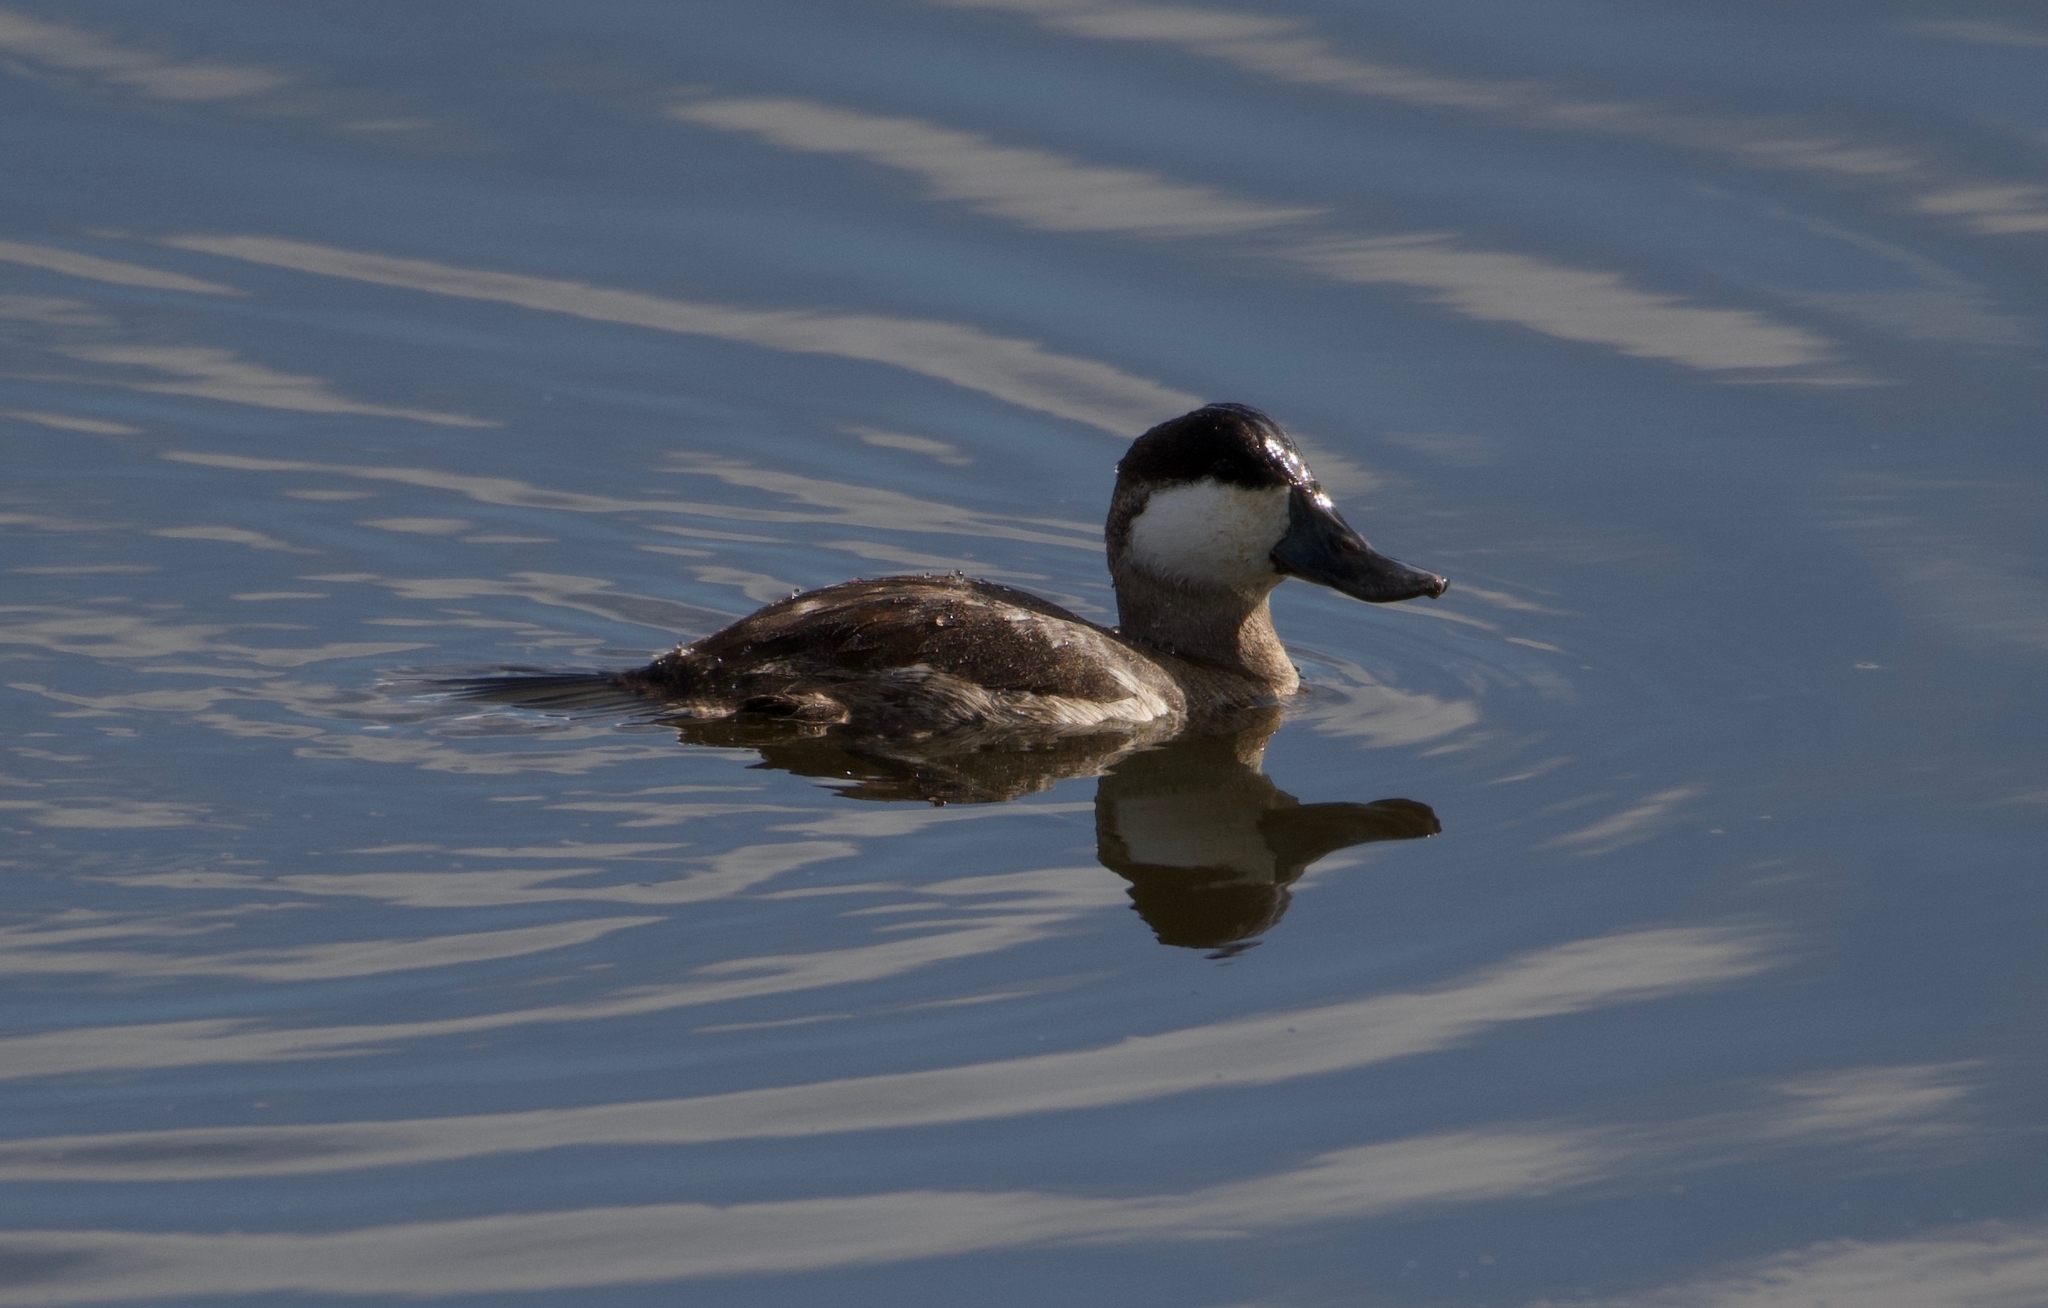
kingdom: Animalia
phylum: Chordata
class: Aves
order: Anseriformes
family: Anatidae
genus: Oxyura
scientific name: Oxyura jamaicensis
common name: Ruddy duck
